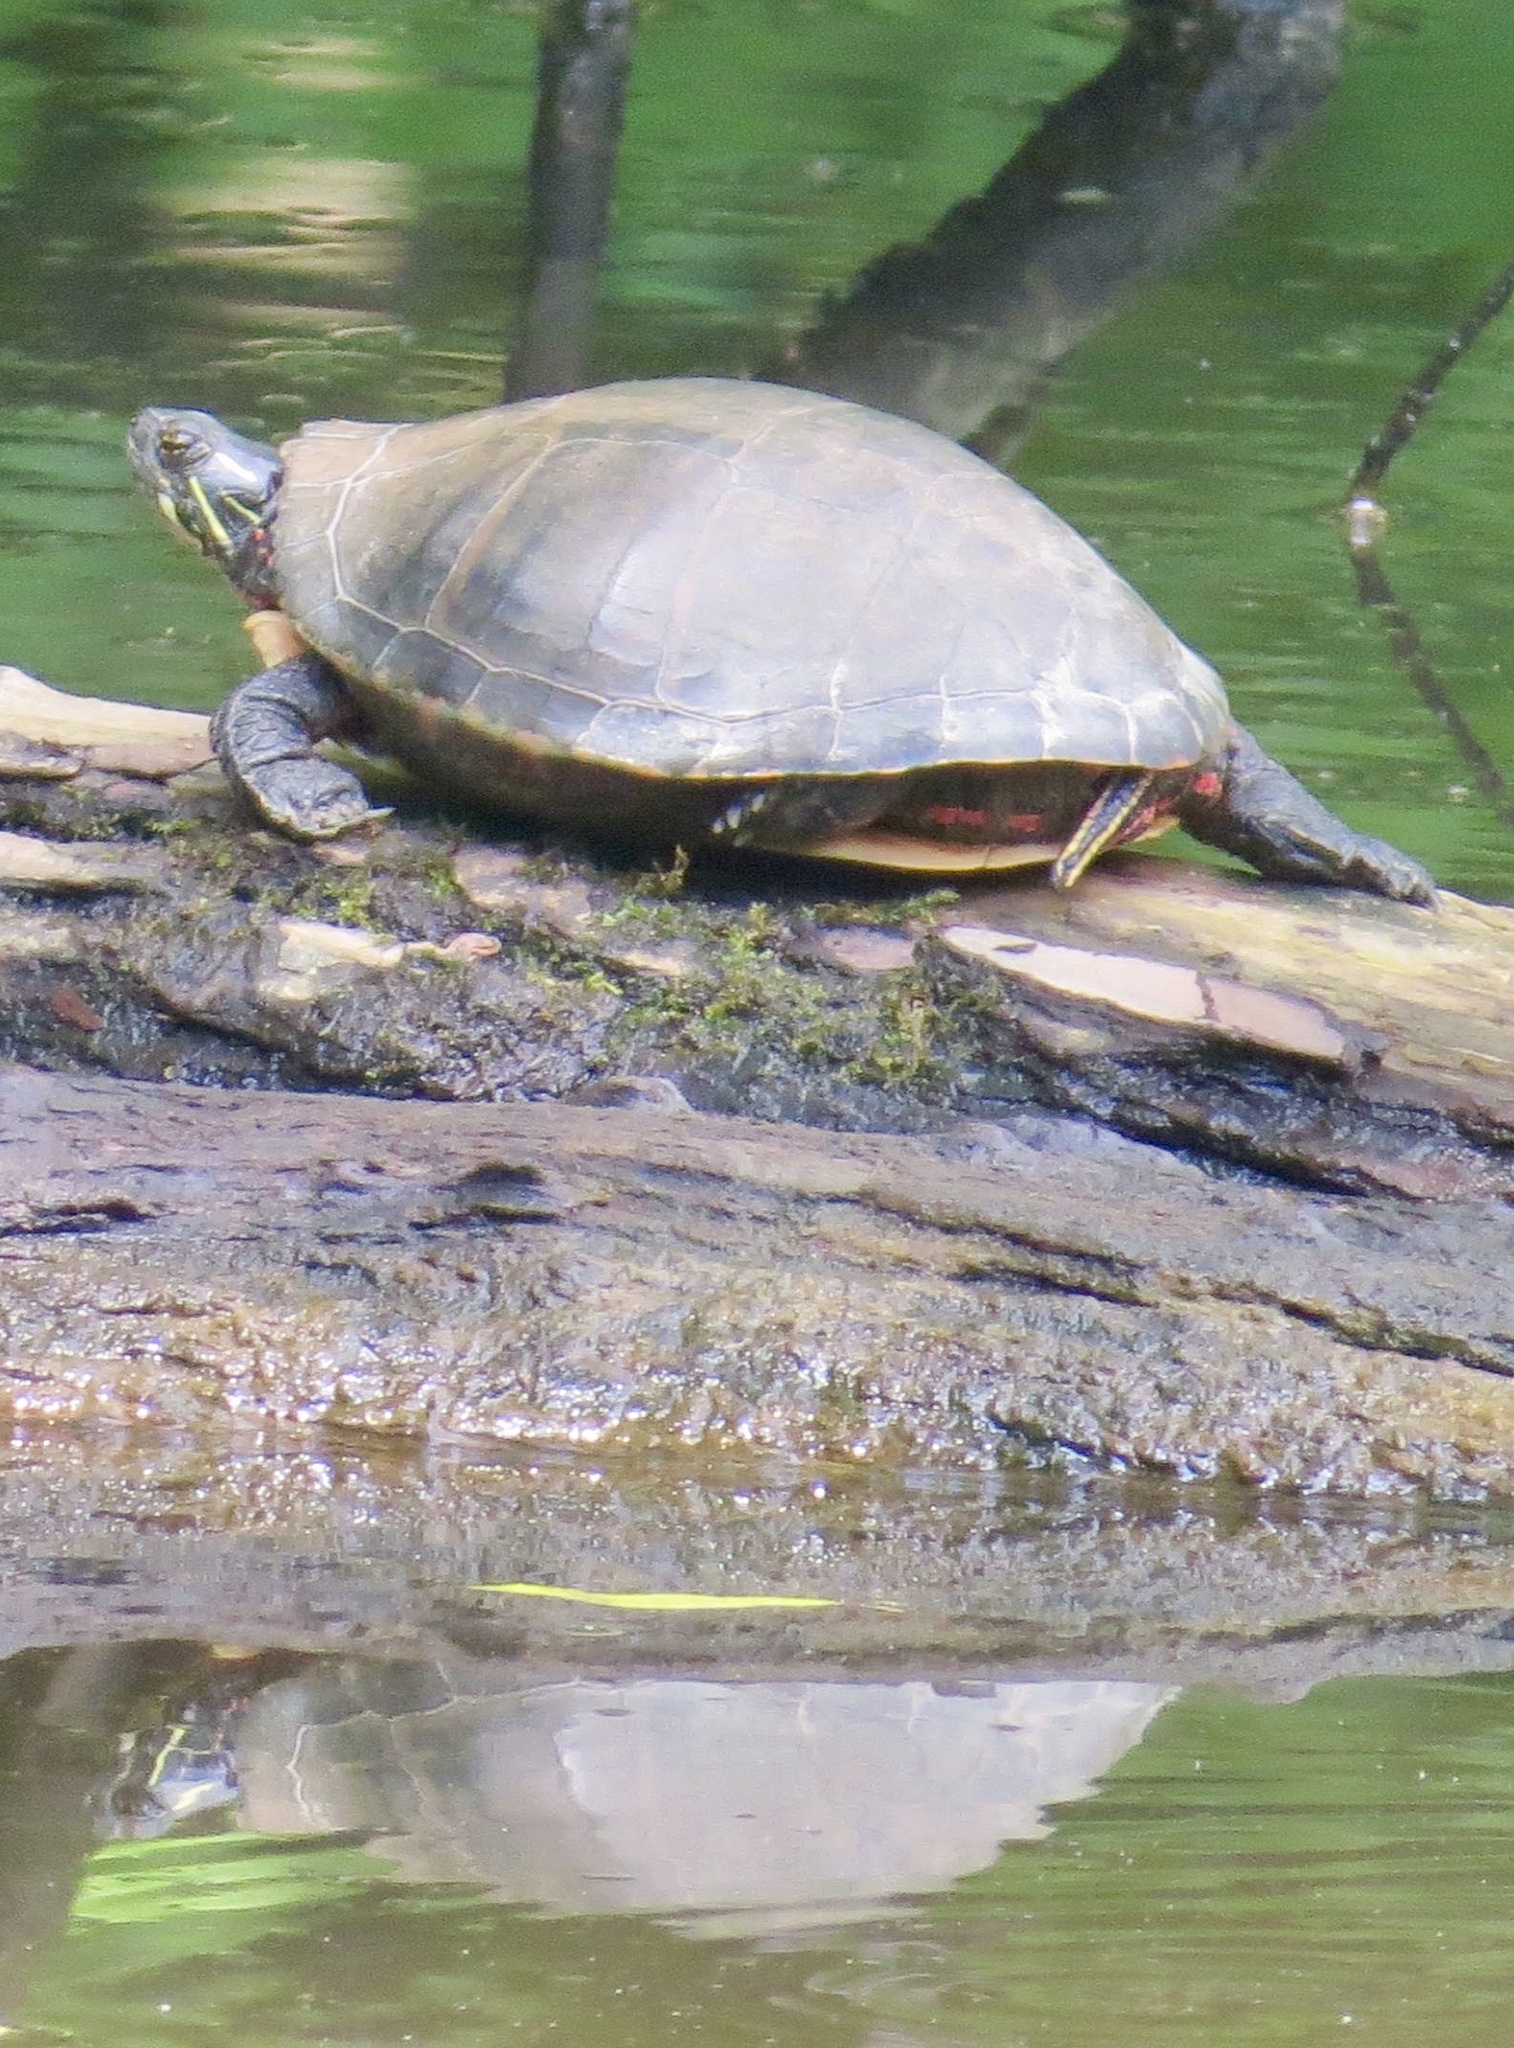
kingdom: Animalia
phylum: Chordata
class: Testudines
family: Emydidae
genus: Chrysemys
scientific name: Chrysemys picta
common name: Painted turtle
